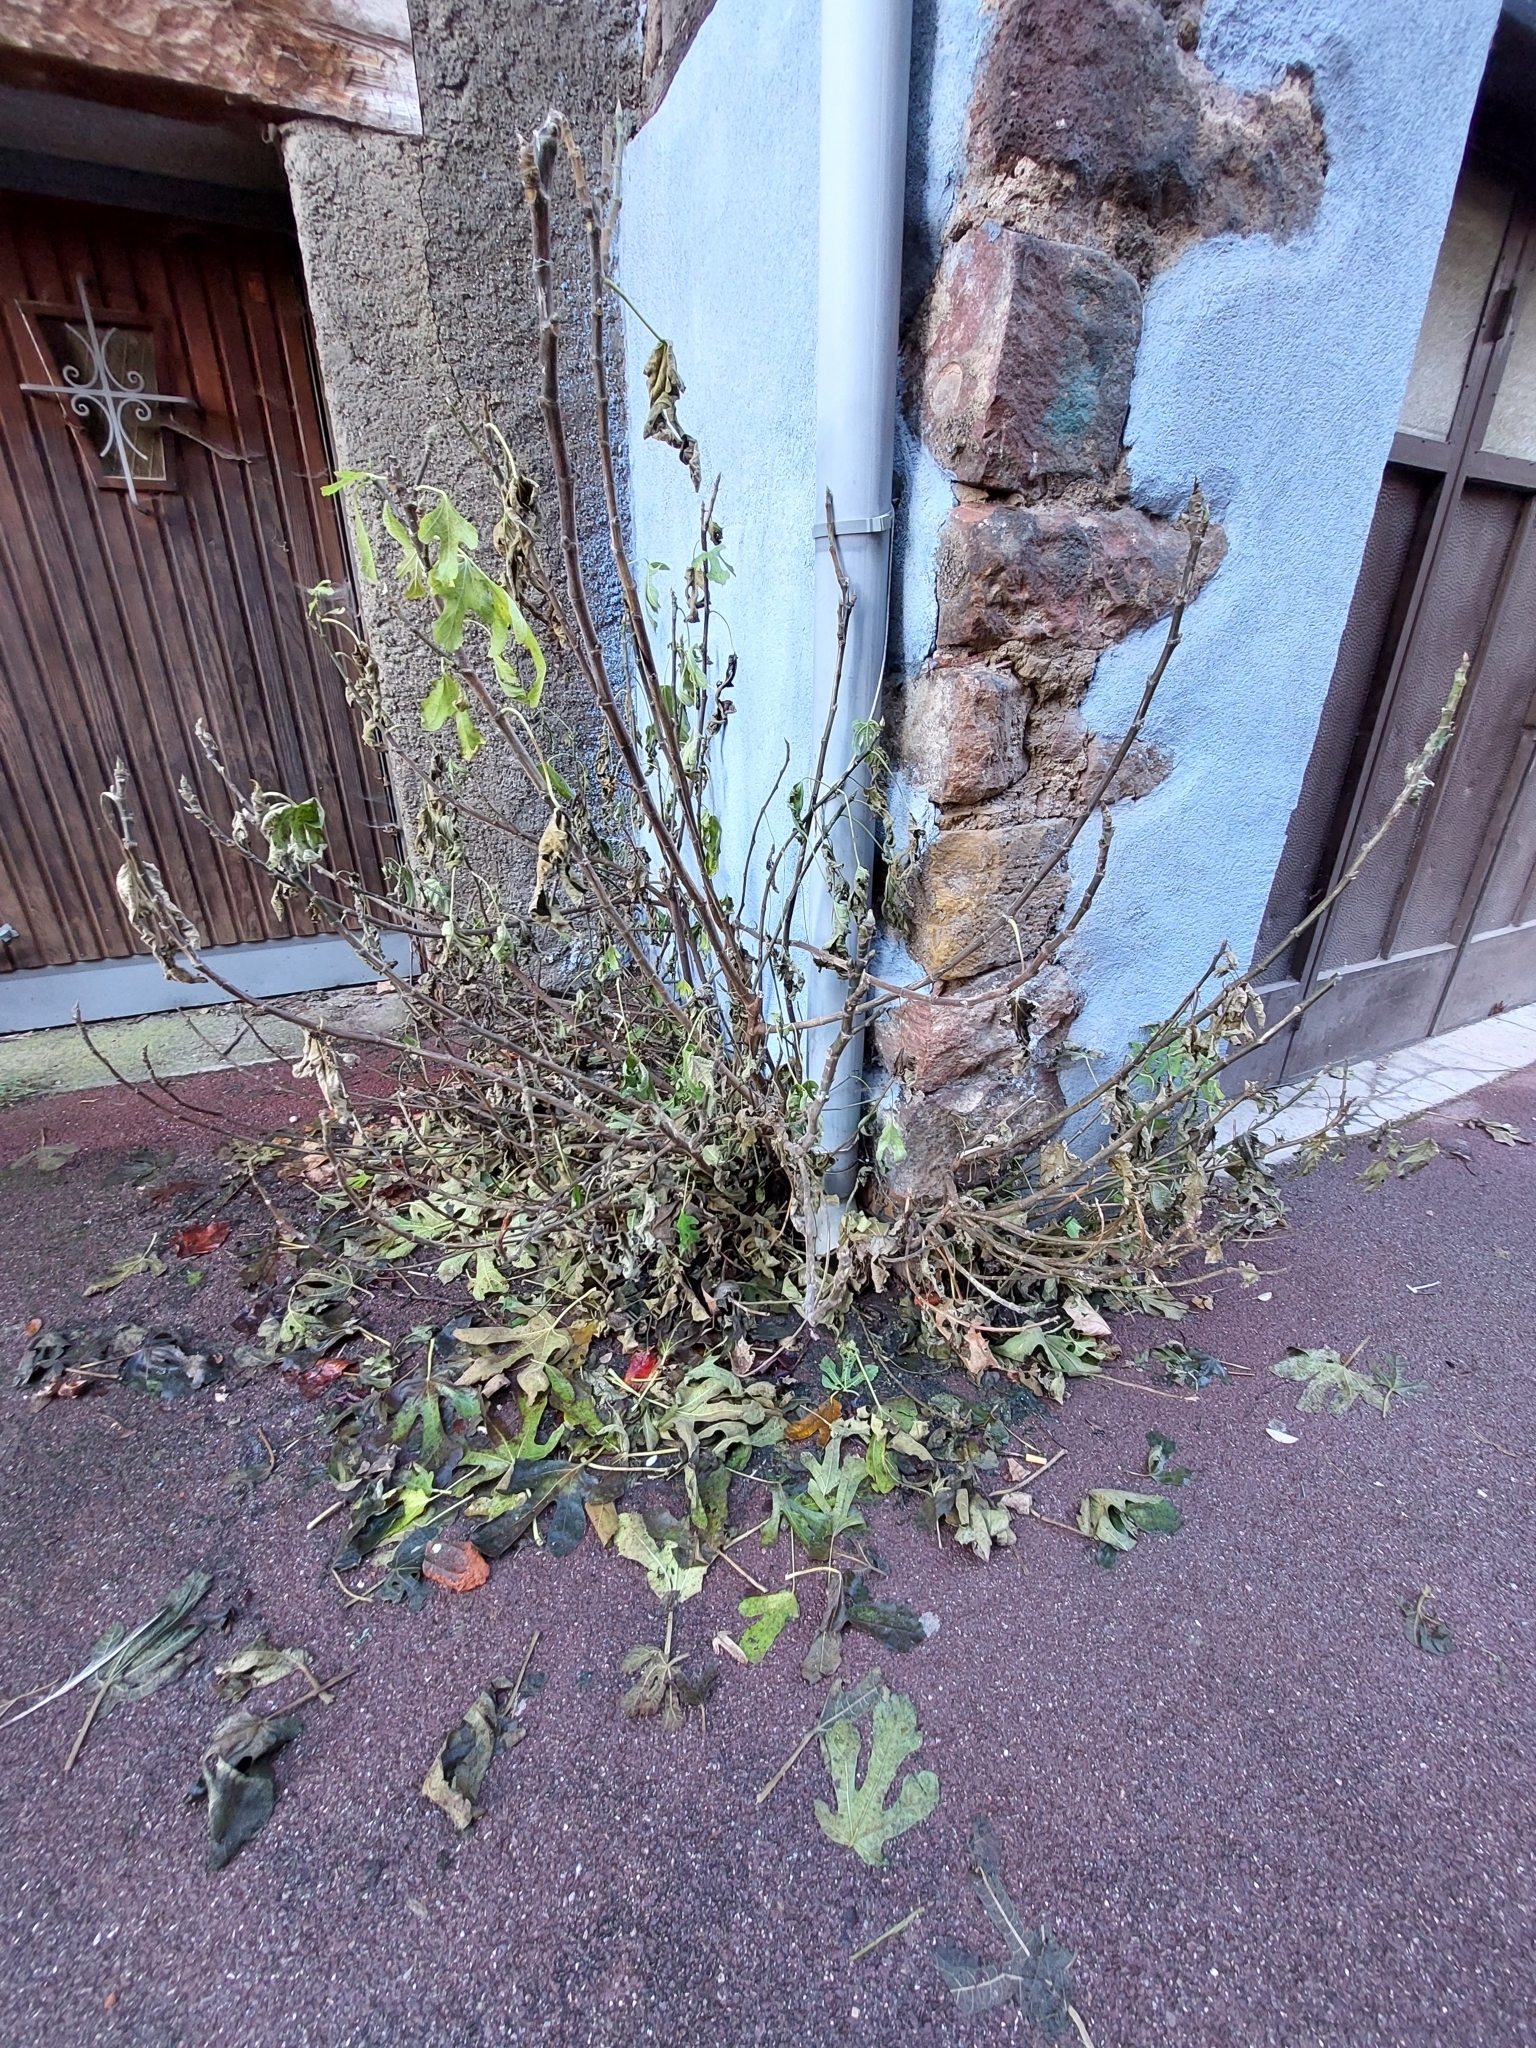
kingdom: Plantae
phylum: Tracheophyta
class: Magnoliopsida
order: Rosales
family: Moraceae
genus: Ficus
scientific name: Ficus carica
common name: Fig
